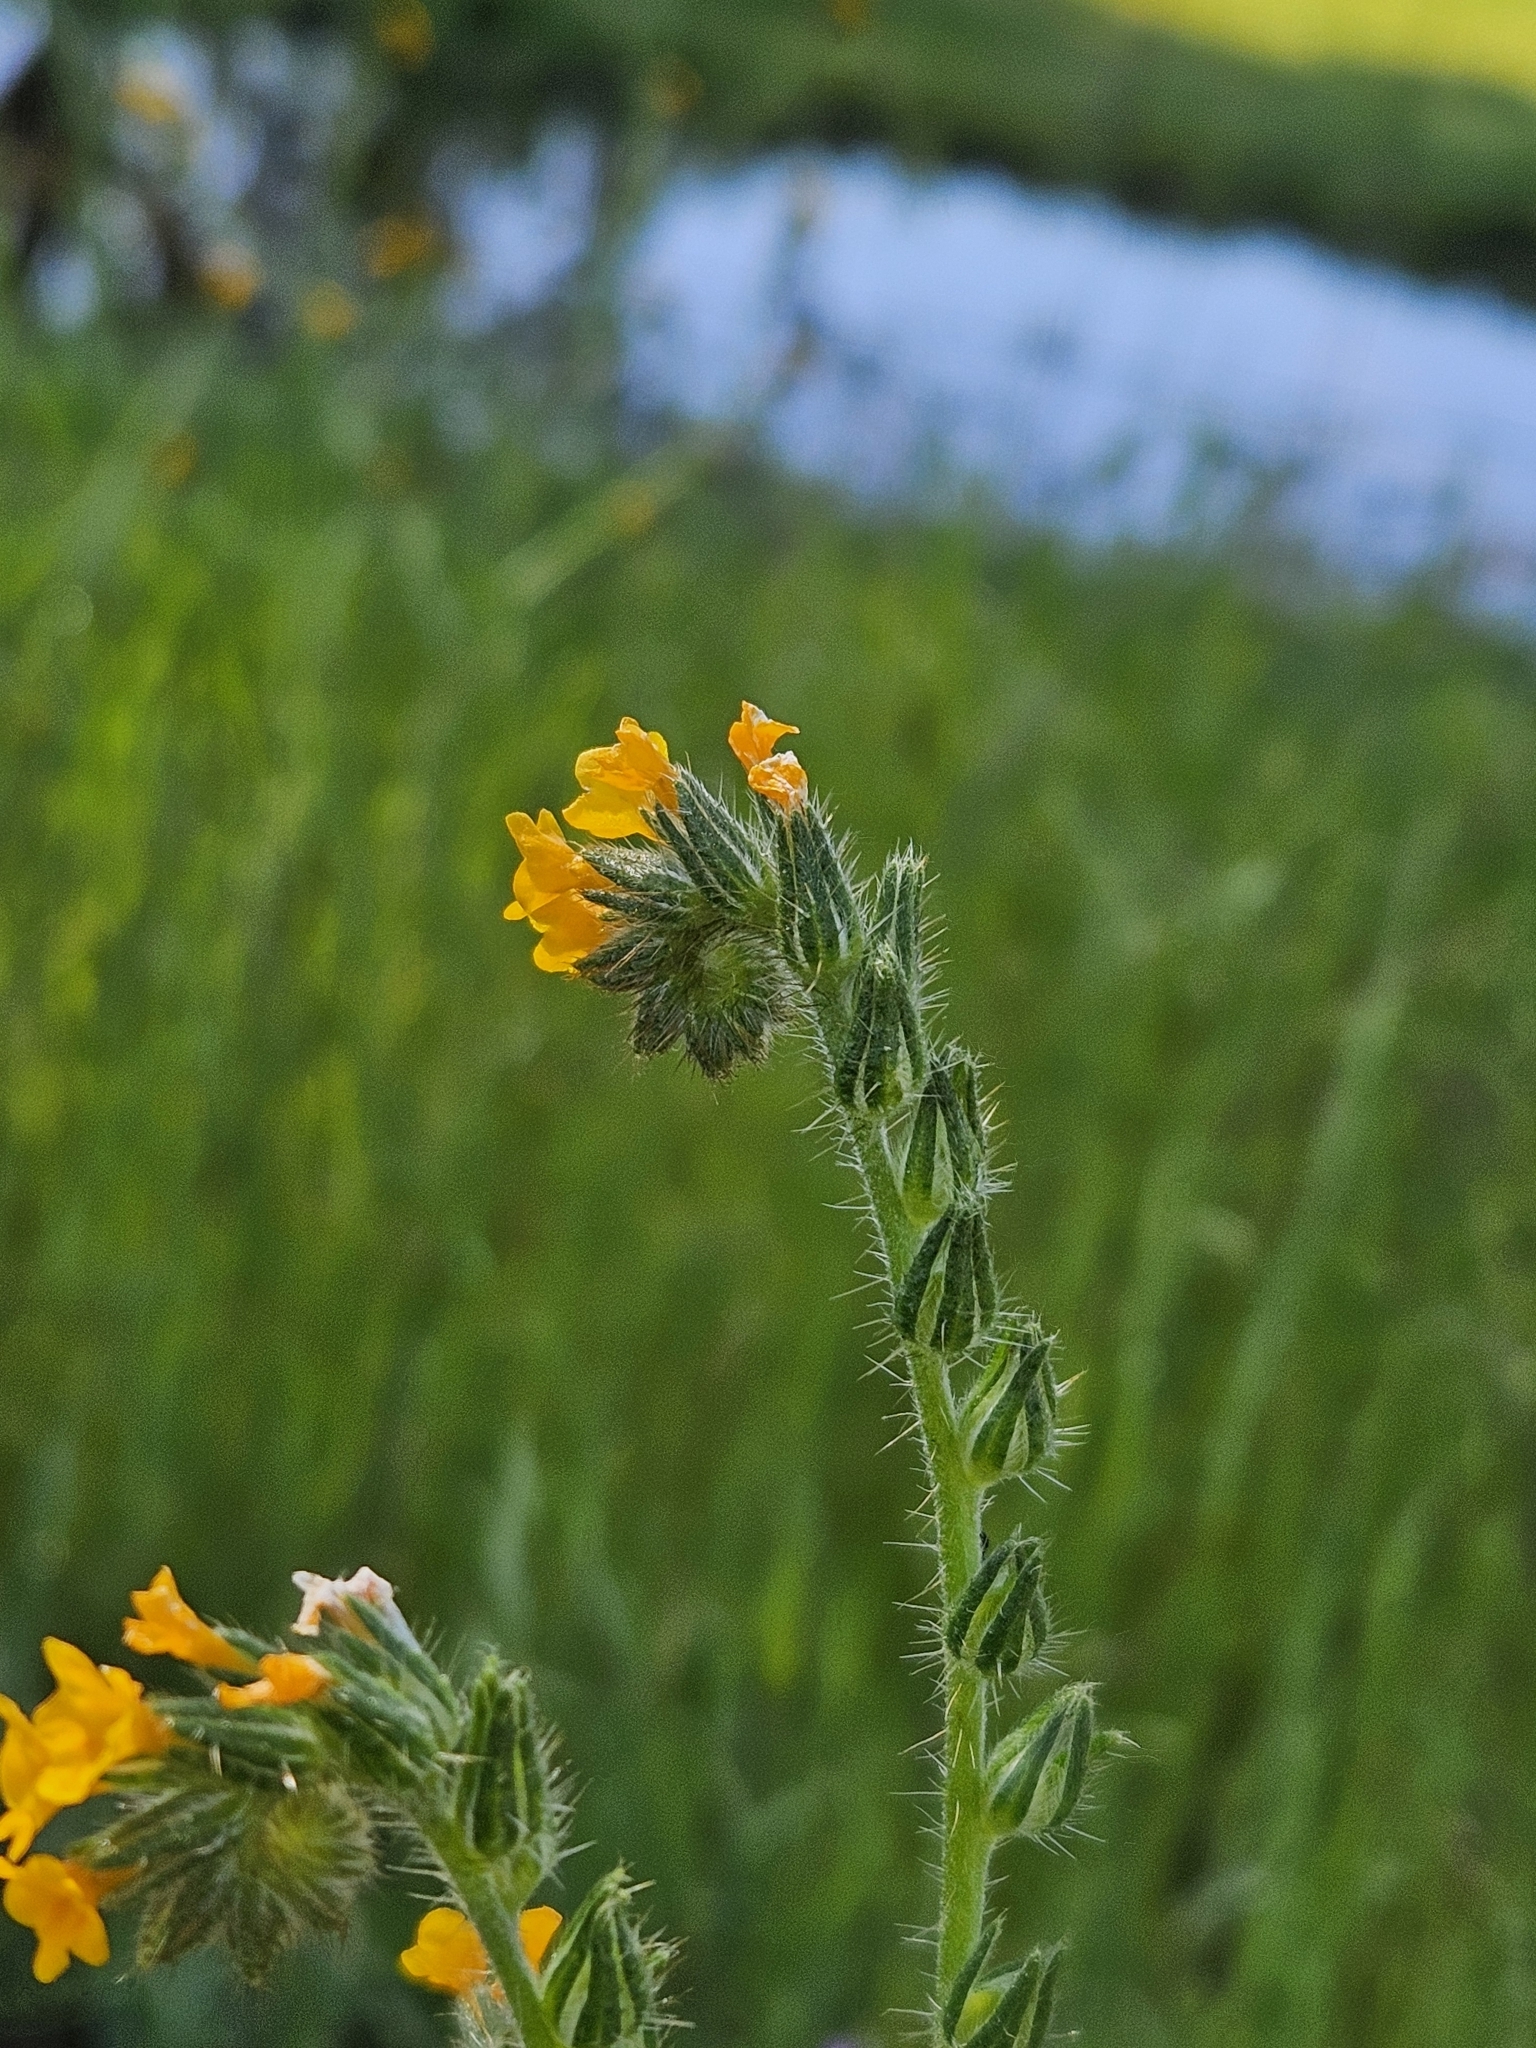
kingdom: Plantae
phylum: Tracheophyta
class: Magnoliopsida
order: Boraginales
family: Boraginaceae
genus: Amsinckia
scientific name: Amsinckia menziesii
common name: Menzies' fiddleneck
